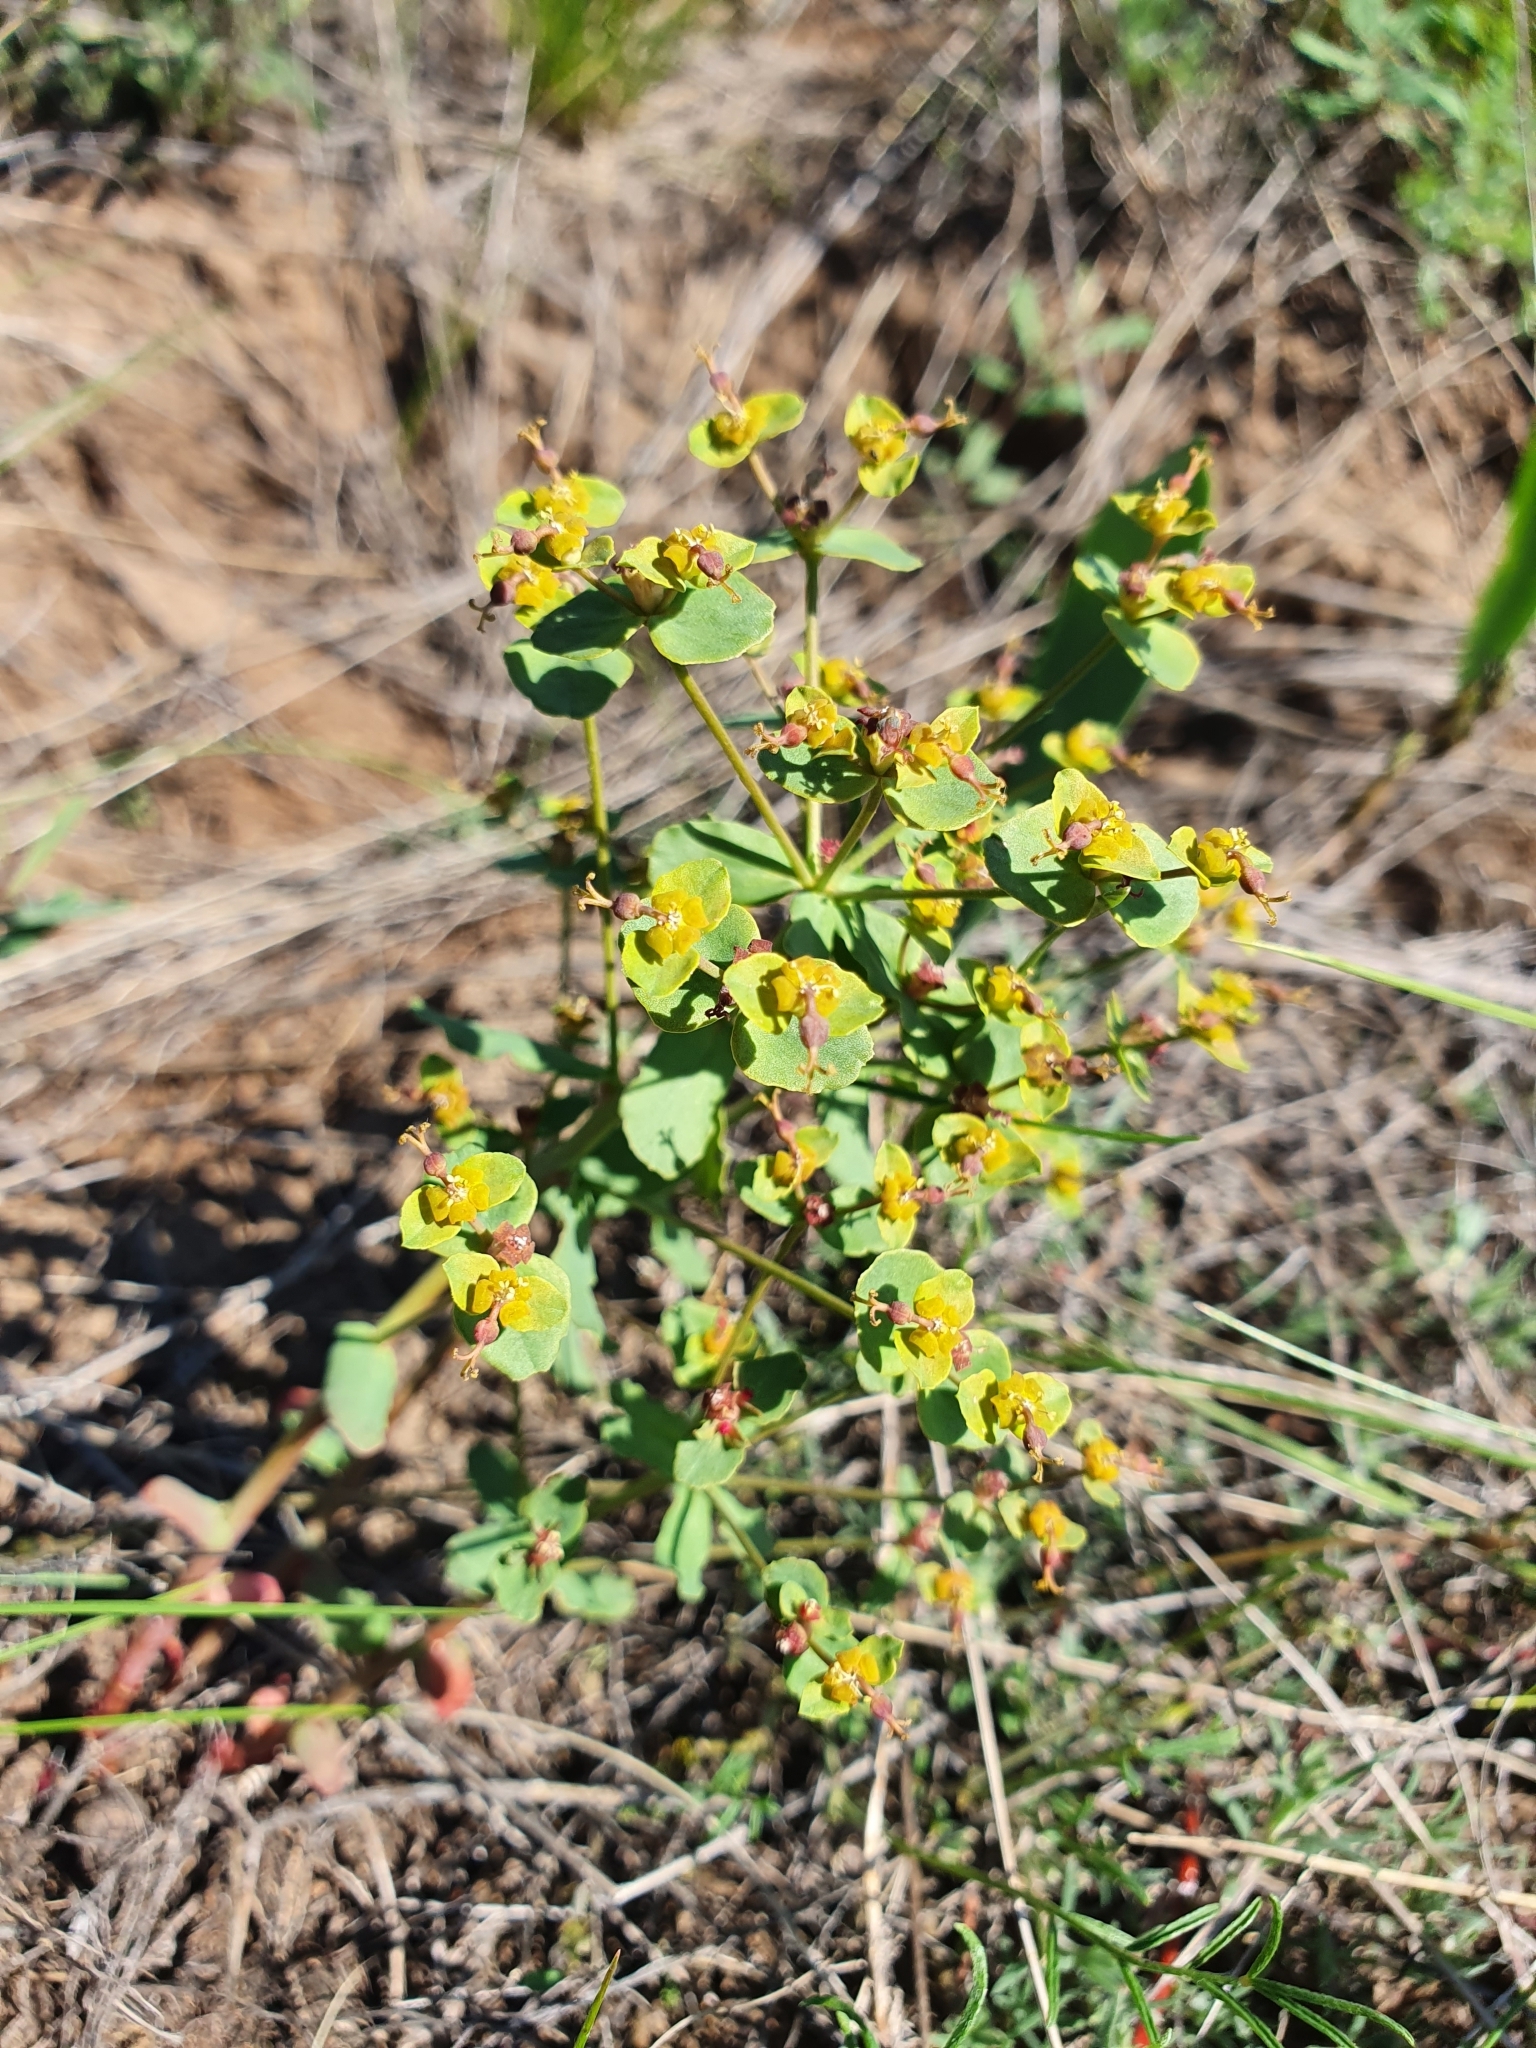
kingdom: Plantae
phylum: Tracheophyta
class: Magnoliopsida
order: Malpighiales
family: Euphorbiaceae
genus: Euphorbia
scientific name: Euphorbia undulata
